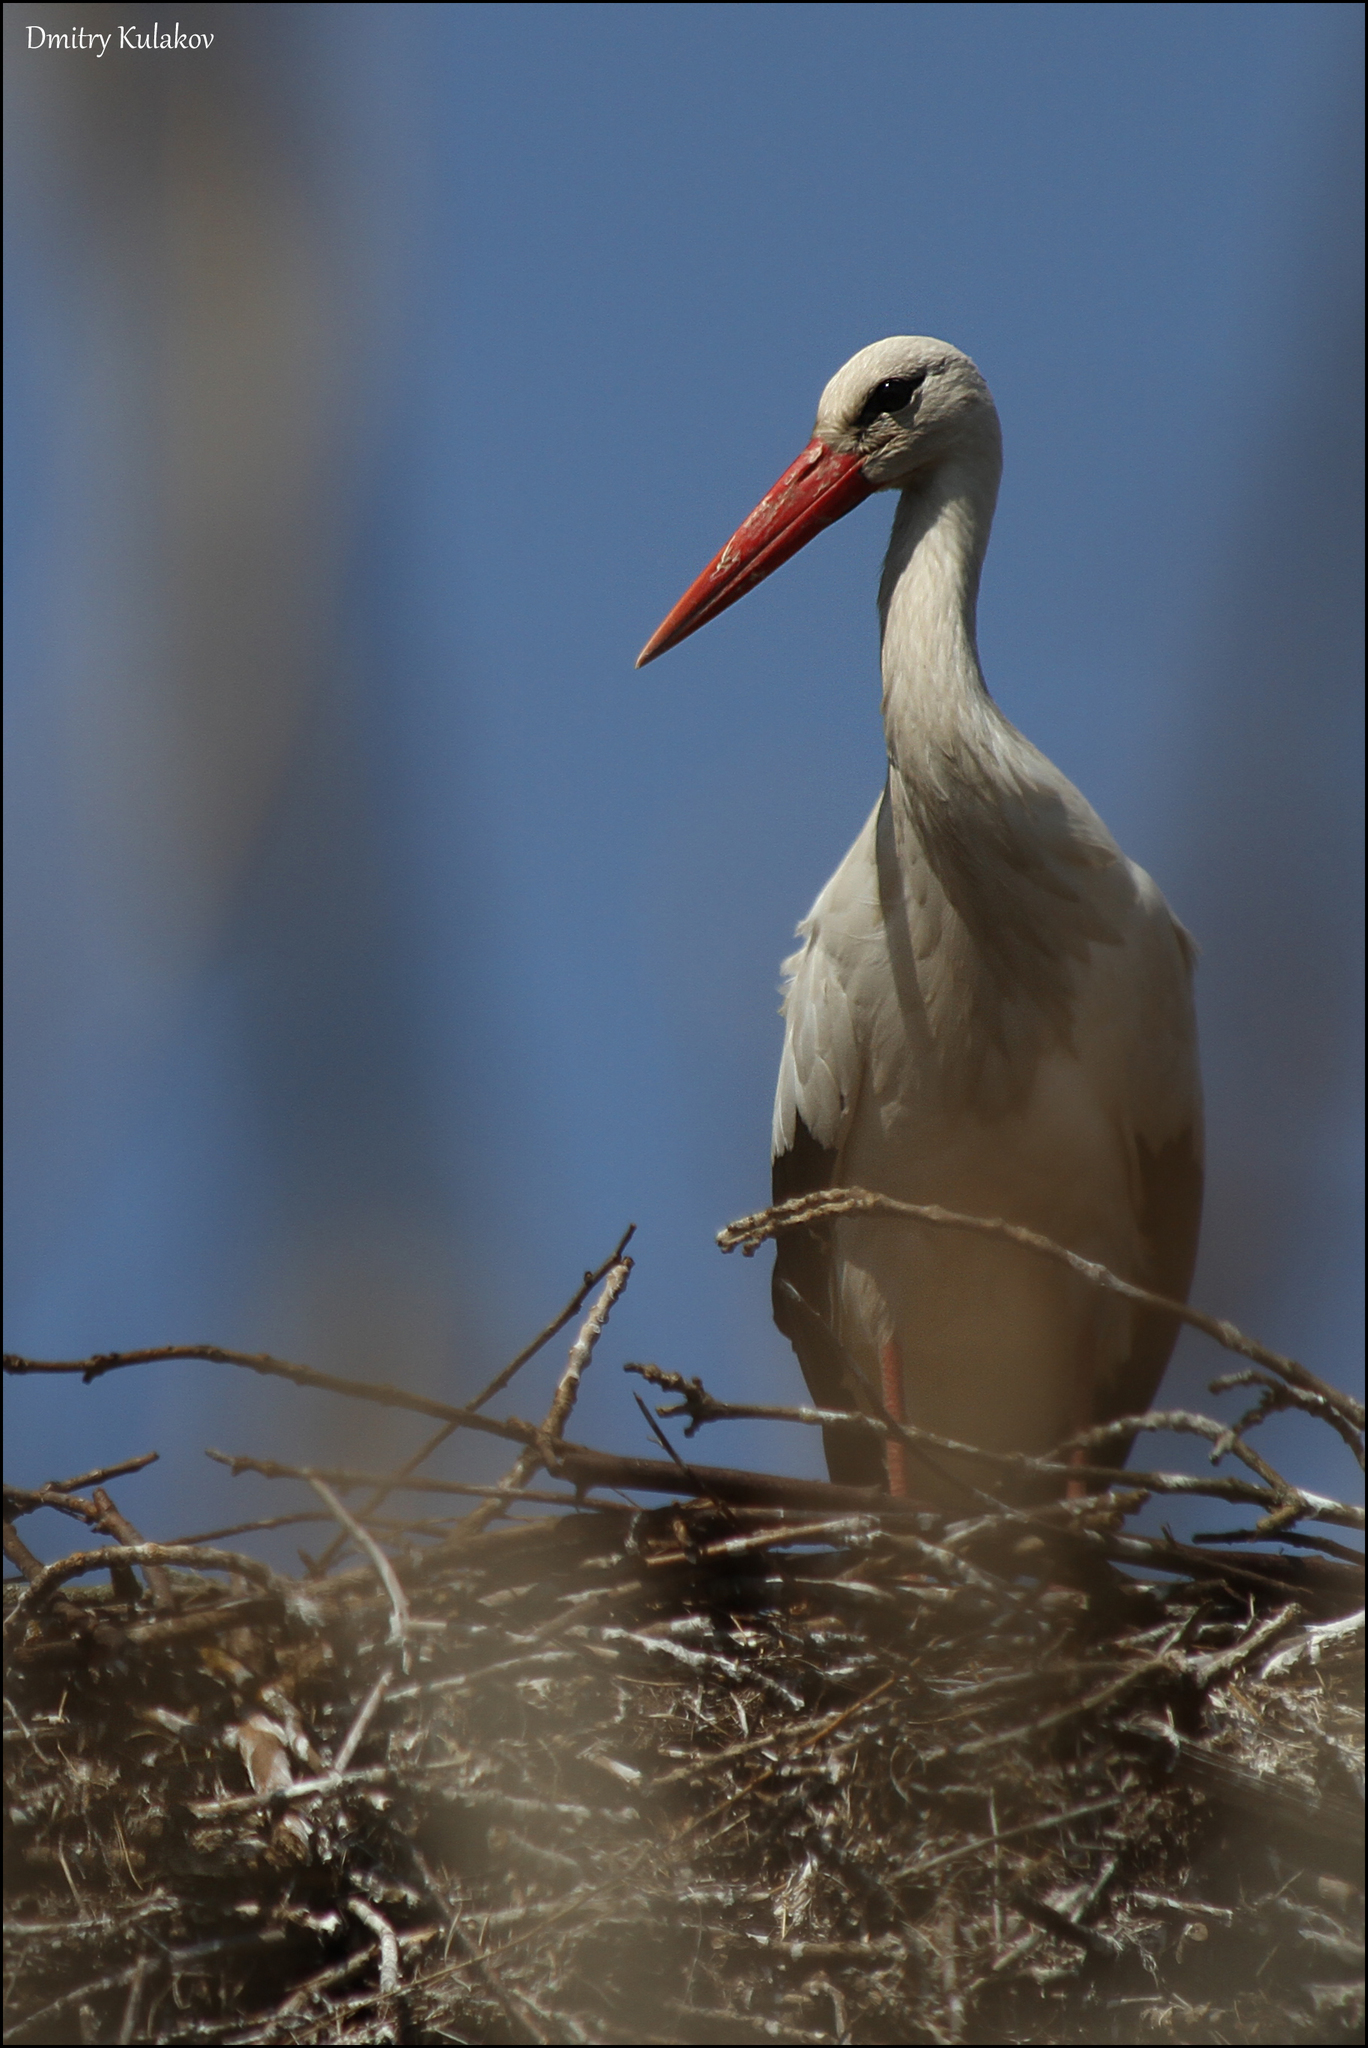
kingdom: Animalia
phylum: Chordata
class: Aves
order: Ciconiiformes
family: Ciconiidae
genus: Ciconia
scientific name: Ciconia ciconia
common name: White stork
